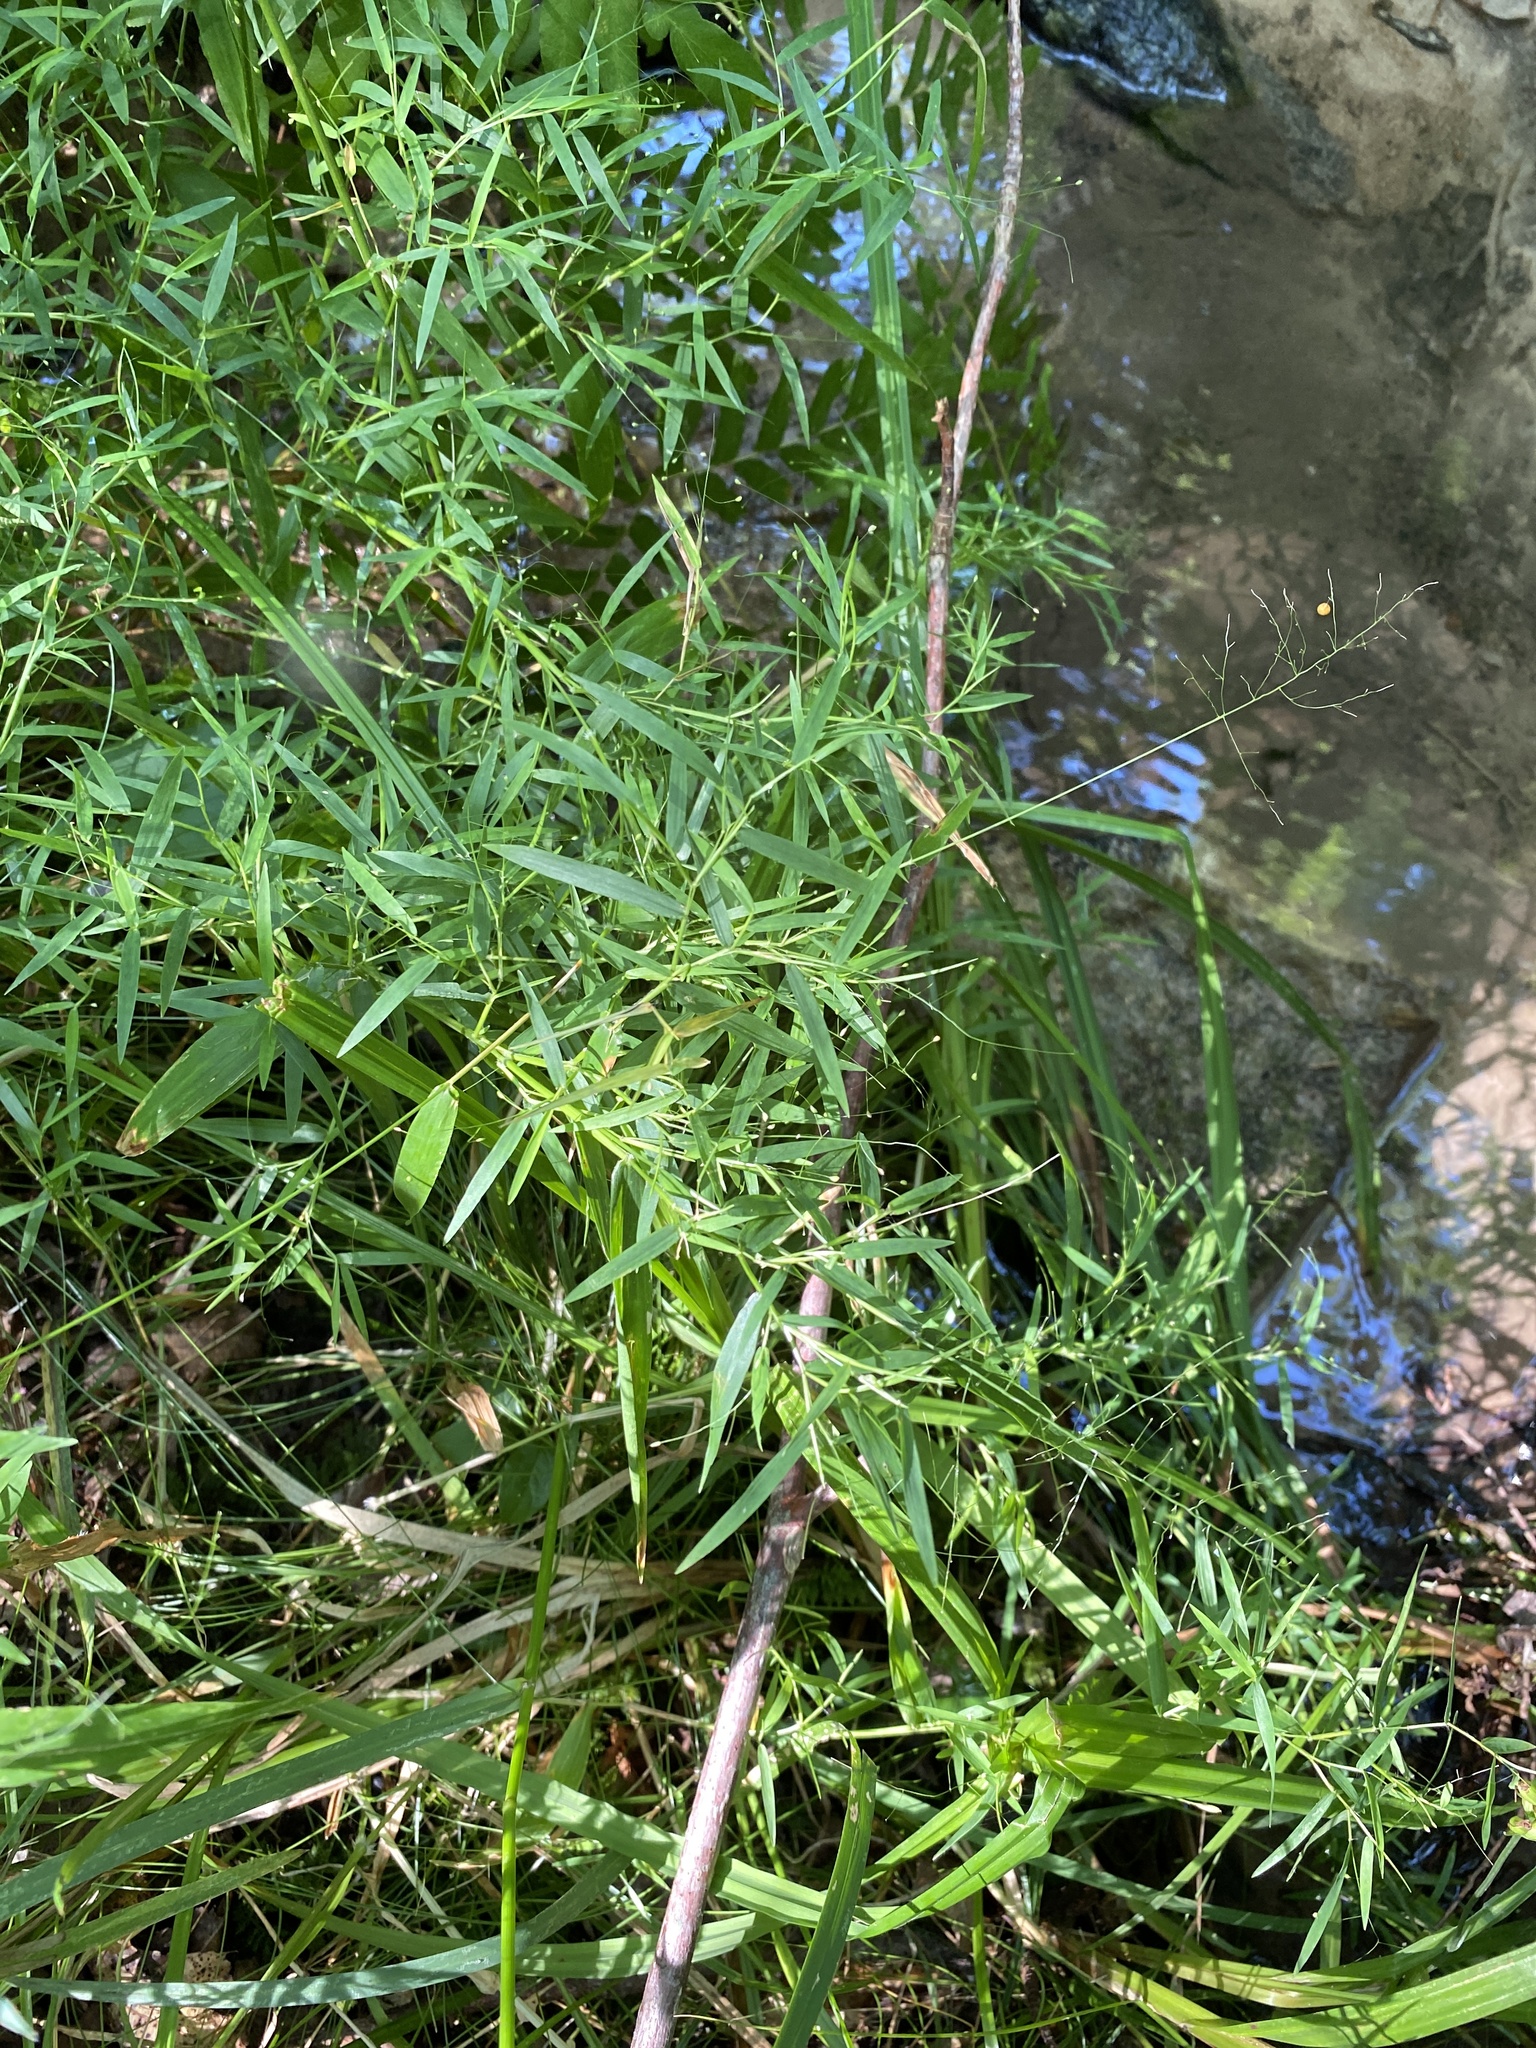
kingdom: Plantae
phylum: Tracheophyta
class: Liliopsida
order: Poales
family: Poaceae
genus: Dichanthelium
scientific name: Dichanthelium microcarpon
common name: Small-fruited witchgrass
